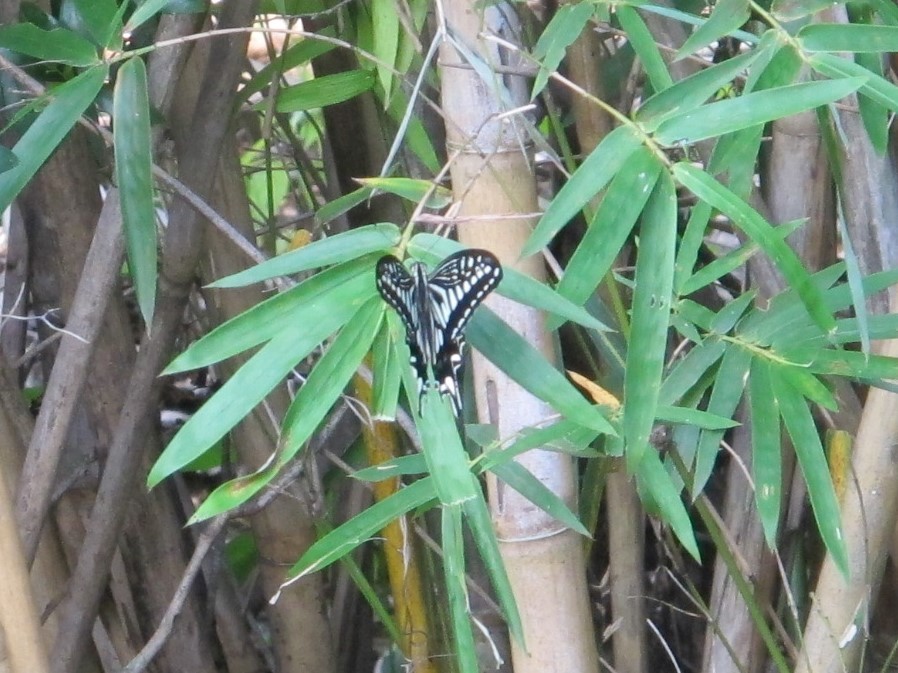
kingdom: Animalia
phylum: Arthropoda
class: Insecta
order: Lepidoptera
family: Papilionidae
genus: Papilio
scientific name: Papilio xuthus
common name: Asian swallowtail
